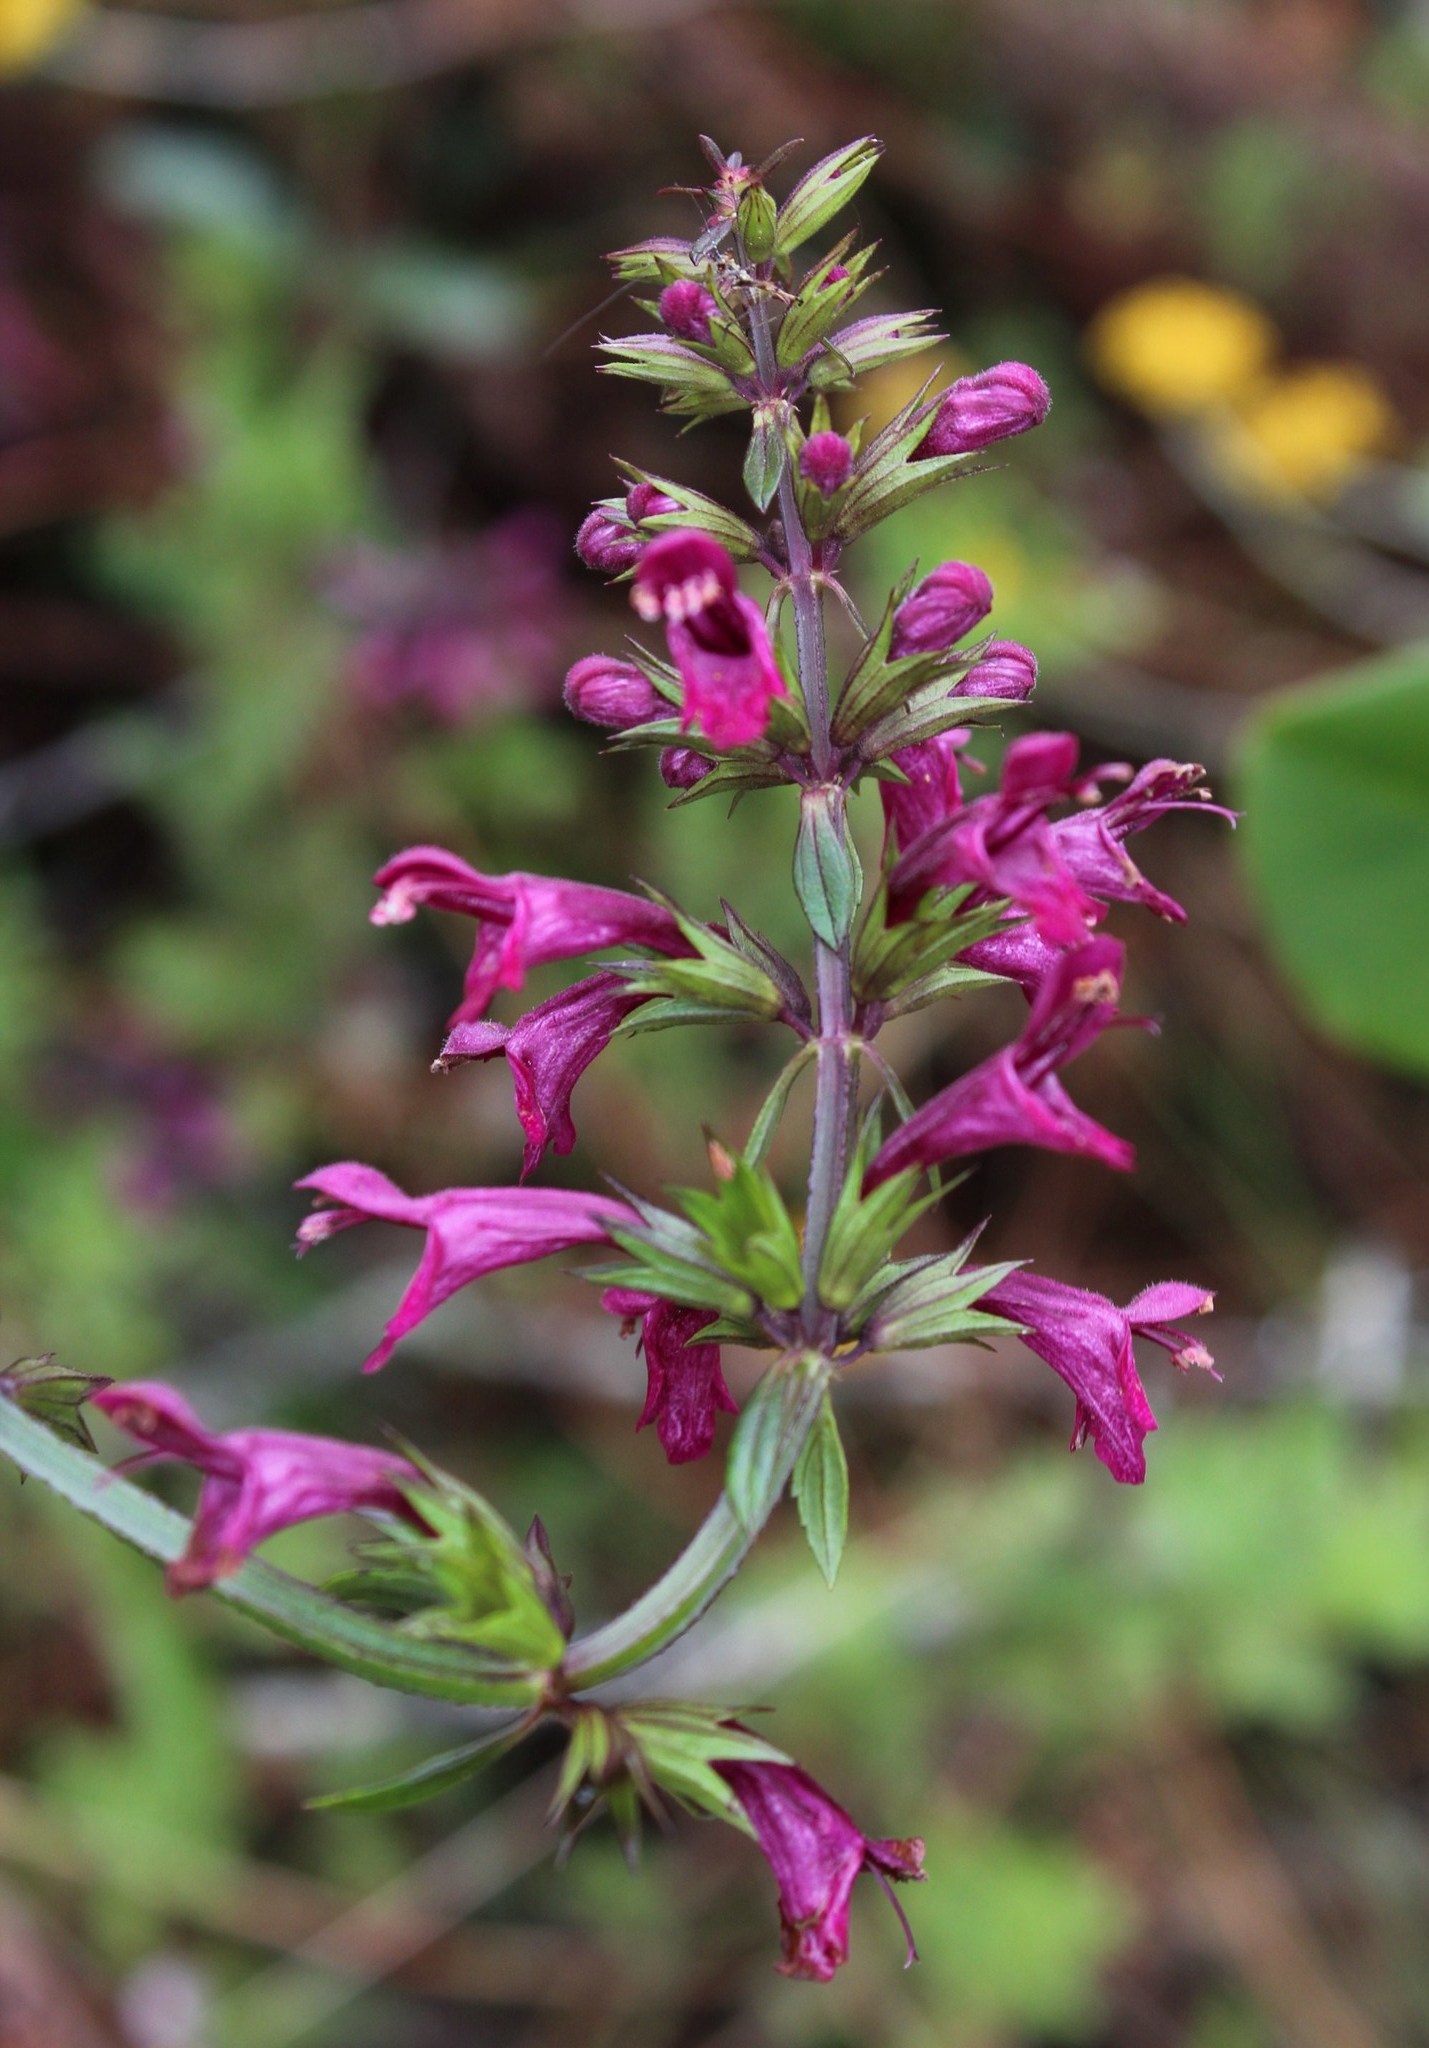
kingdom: Plantae
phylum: Tracheophyta
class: Magnoliopsida
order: Lamiales
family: Lamiaceae
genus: Stachys
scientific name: Stachys thunbergii
